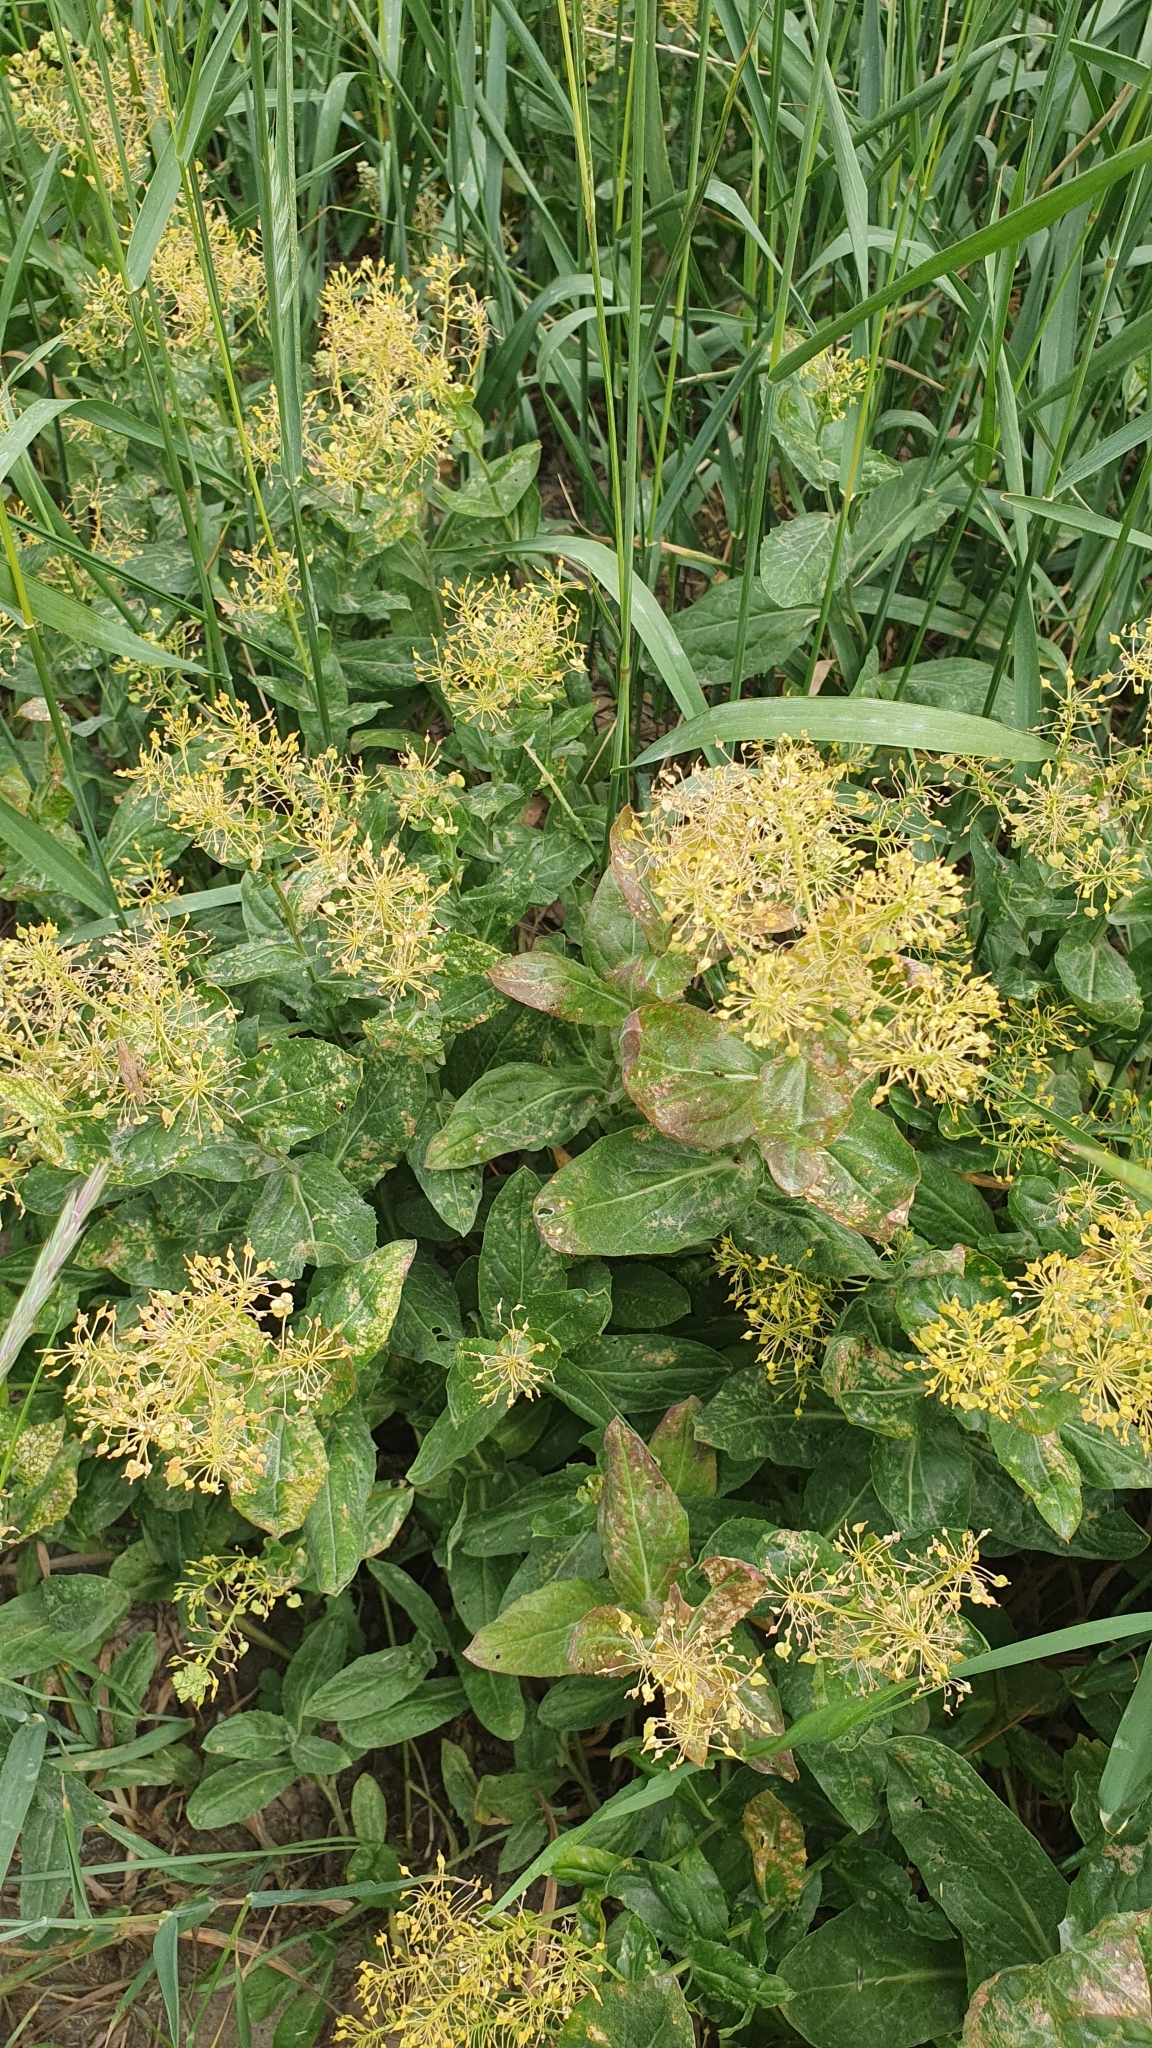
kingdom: Plantae
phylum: Tracheophyta
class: Magnoliopsida
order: Brassicales
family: Brassicaceae
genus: Lepidium
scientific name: Lepidium draba
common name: Hoary cress
